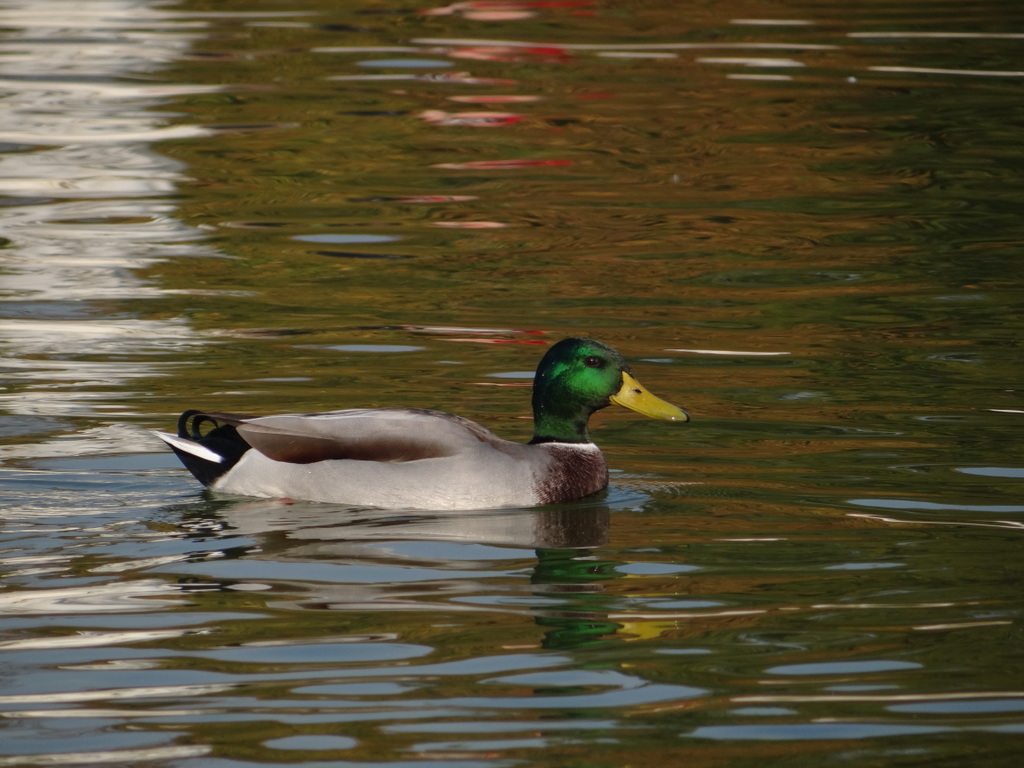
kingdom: Animalia
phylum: Chordata
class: Aves
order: Anseriformes
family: Anatidae
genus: Anas
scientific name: Anas platyrhynchos
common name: Mallard
